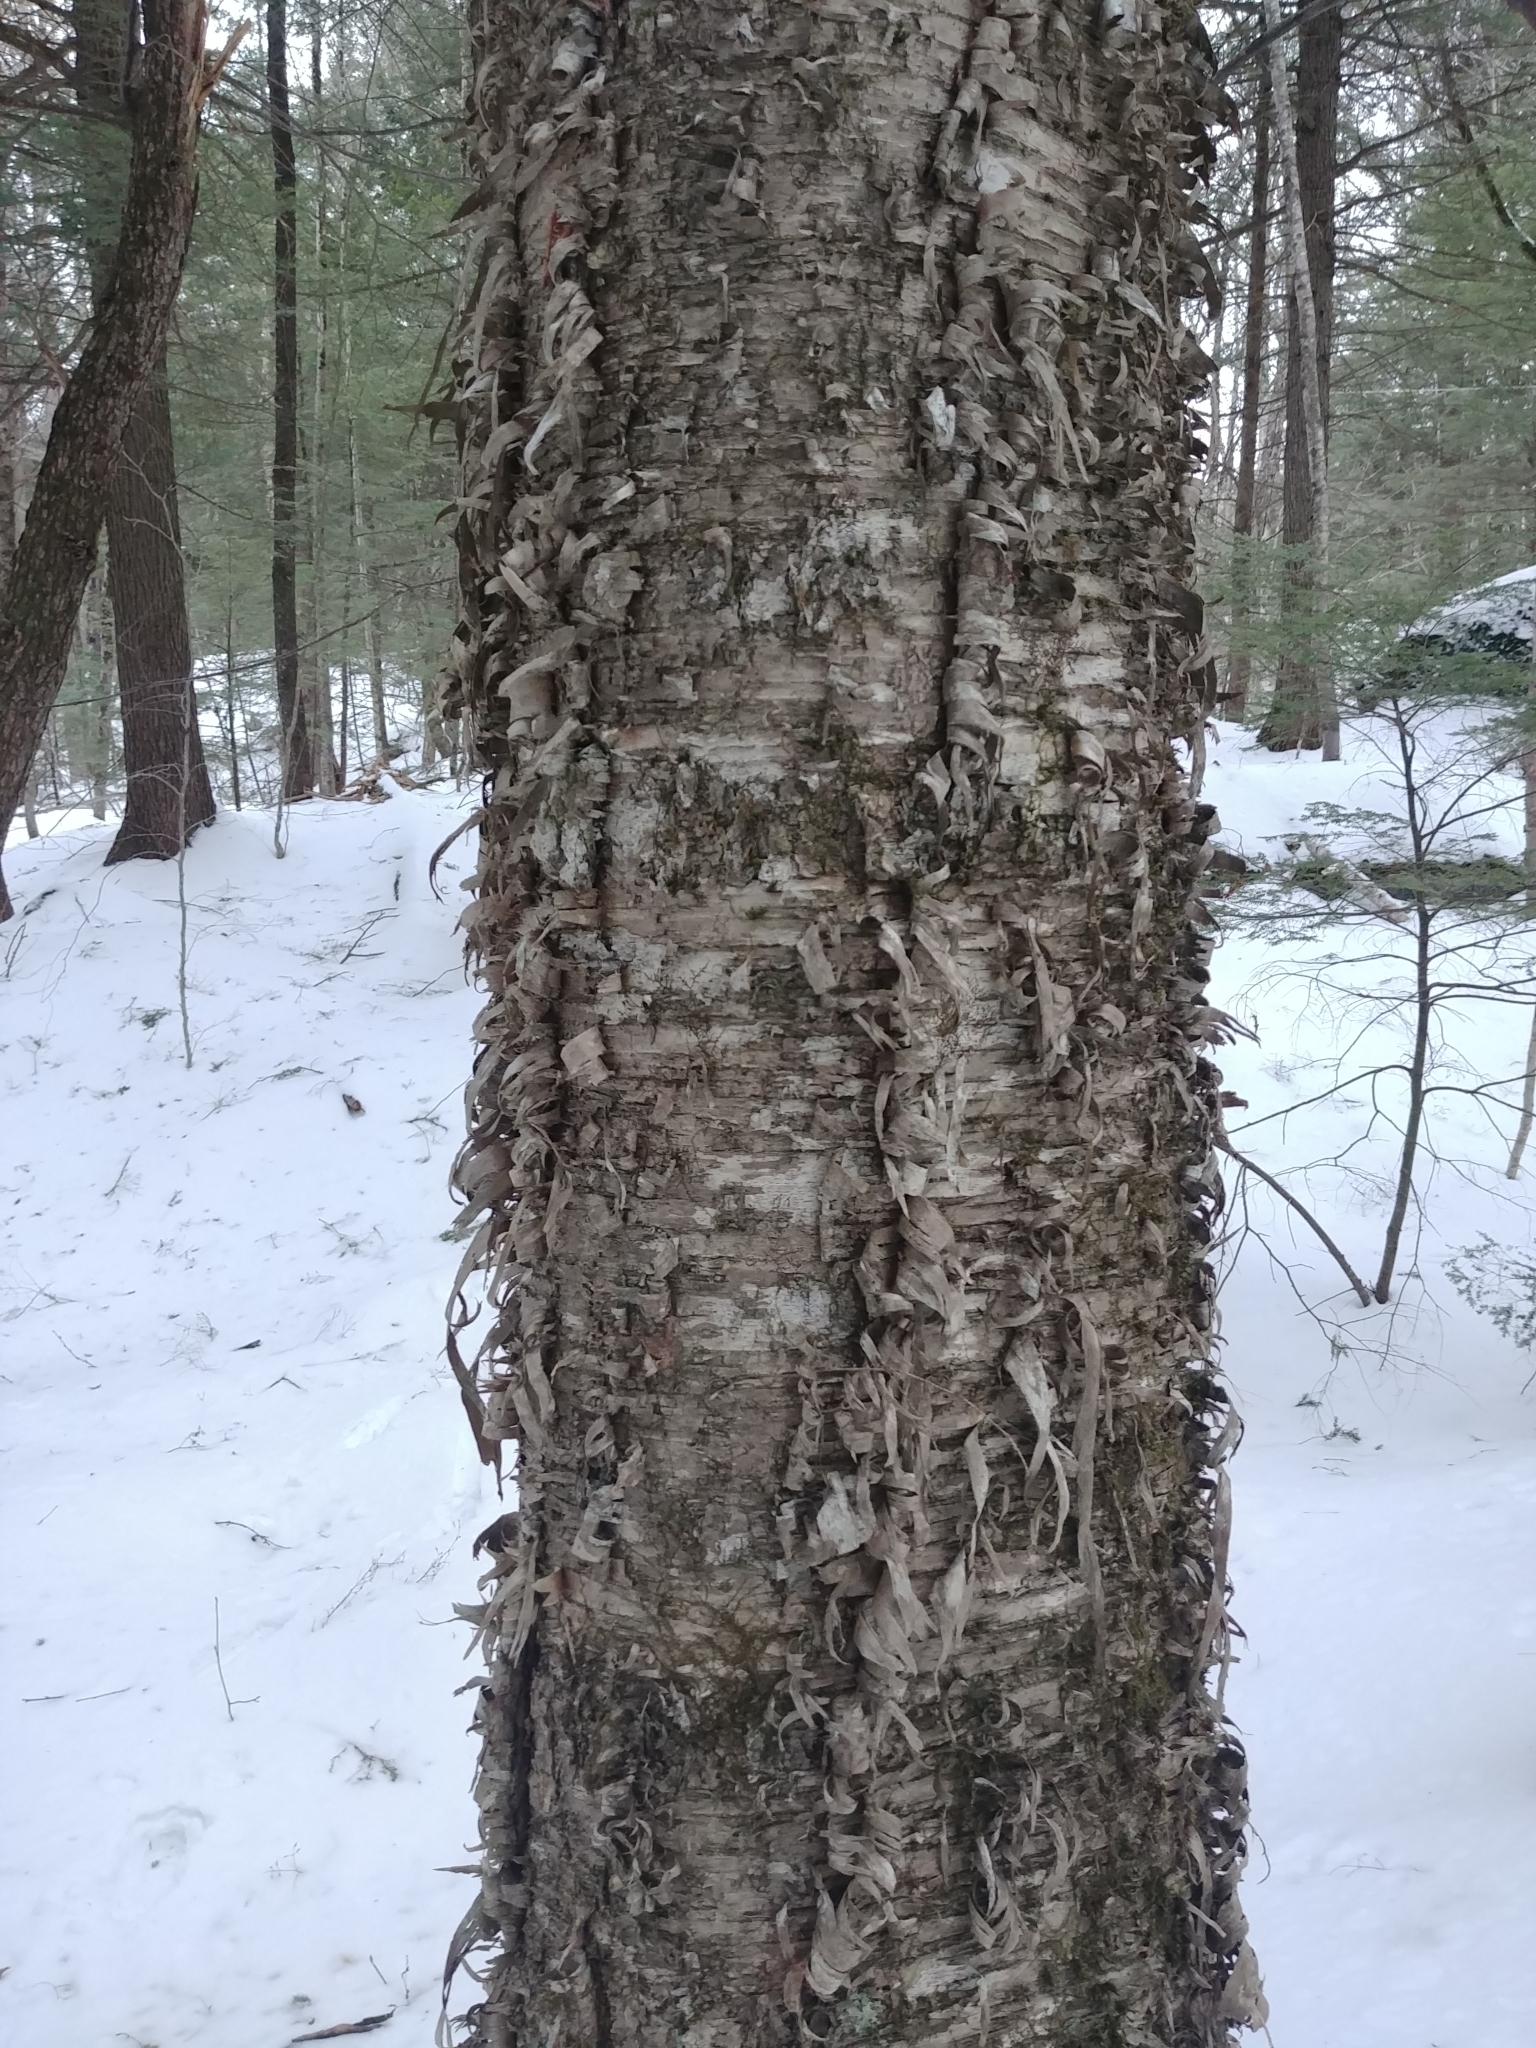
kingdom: Plantae
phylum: Tracheophyta
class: Magnoliopsida
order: Fagales
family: Betulaceae
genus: Betula
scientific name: Betula alleghaniensis
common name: Yellow birch
